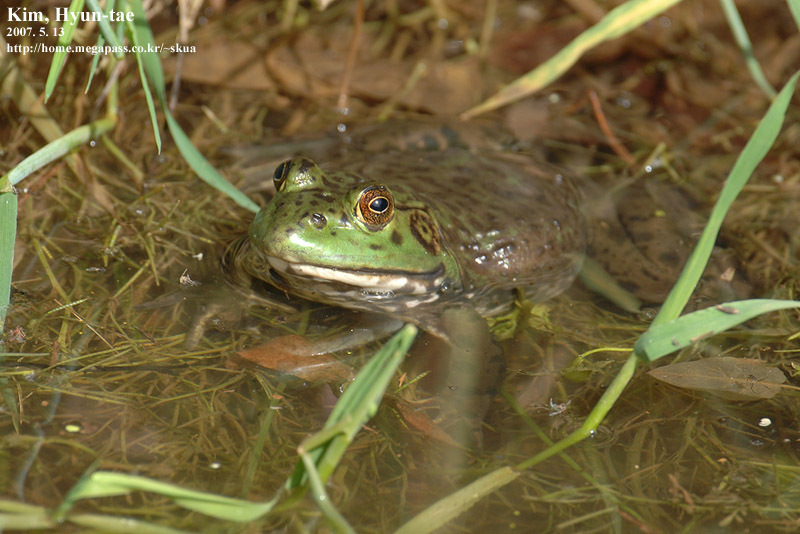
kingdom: Animalia
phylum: Chordata
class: Amphibia
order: Anura
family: Ranidae
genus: Lithobates
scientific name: Lithobates catesbeianus
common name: American bullfrog
